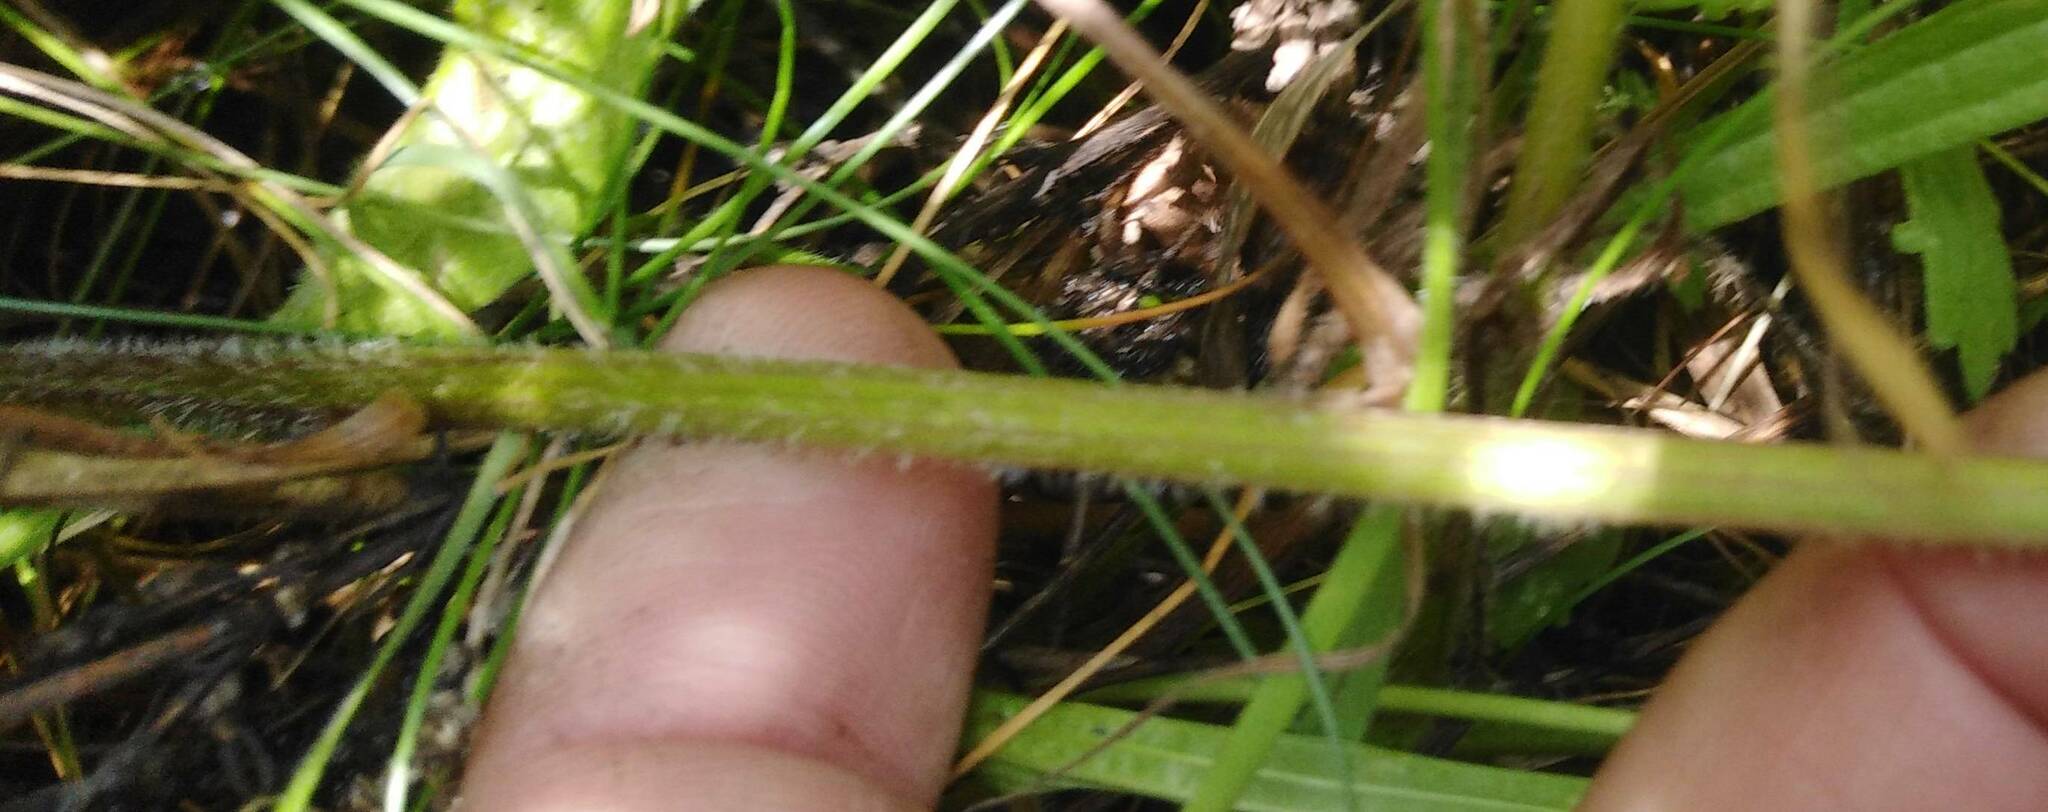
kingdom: Plantae
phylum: Tracheophyta
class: Magnoliopsida
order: Asterales
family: Asteraceae
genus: Leucanthemum
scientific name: Leucanthemum ircutianum
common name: Daisy
